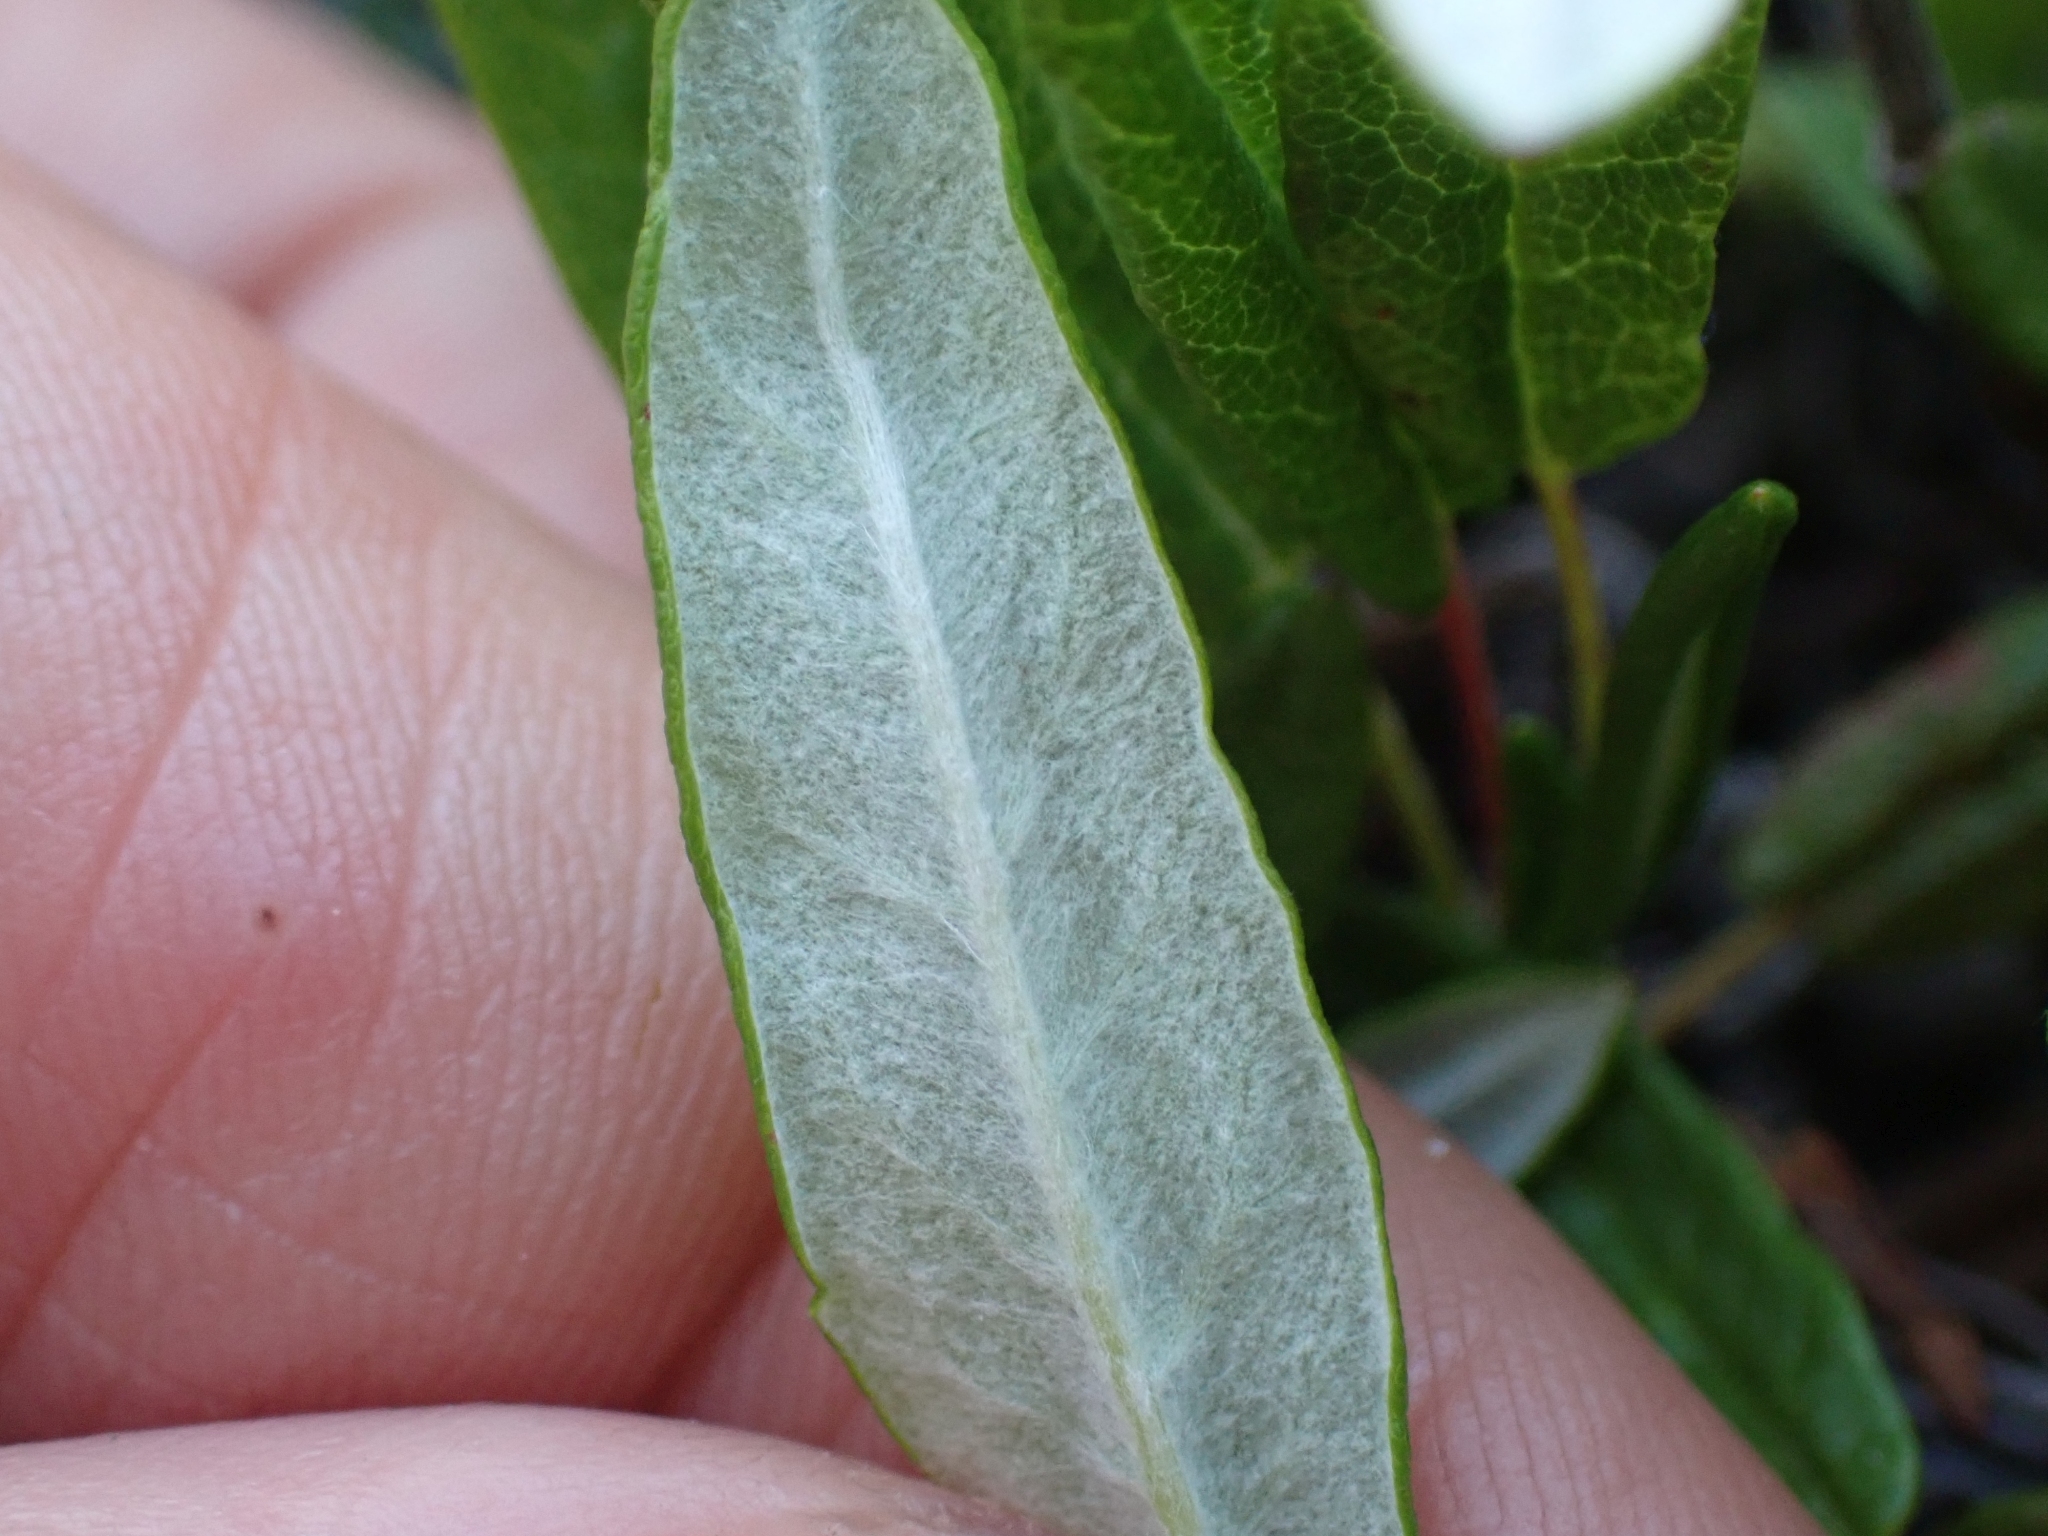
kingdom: Plantae
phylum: Tracheophyta
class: Magnoliopsida
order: Rosales
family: Rosaceae
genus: Dryas
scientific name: Dryas integrifolia
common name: Entire-leaved mountain avens
